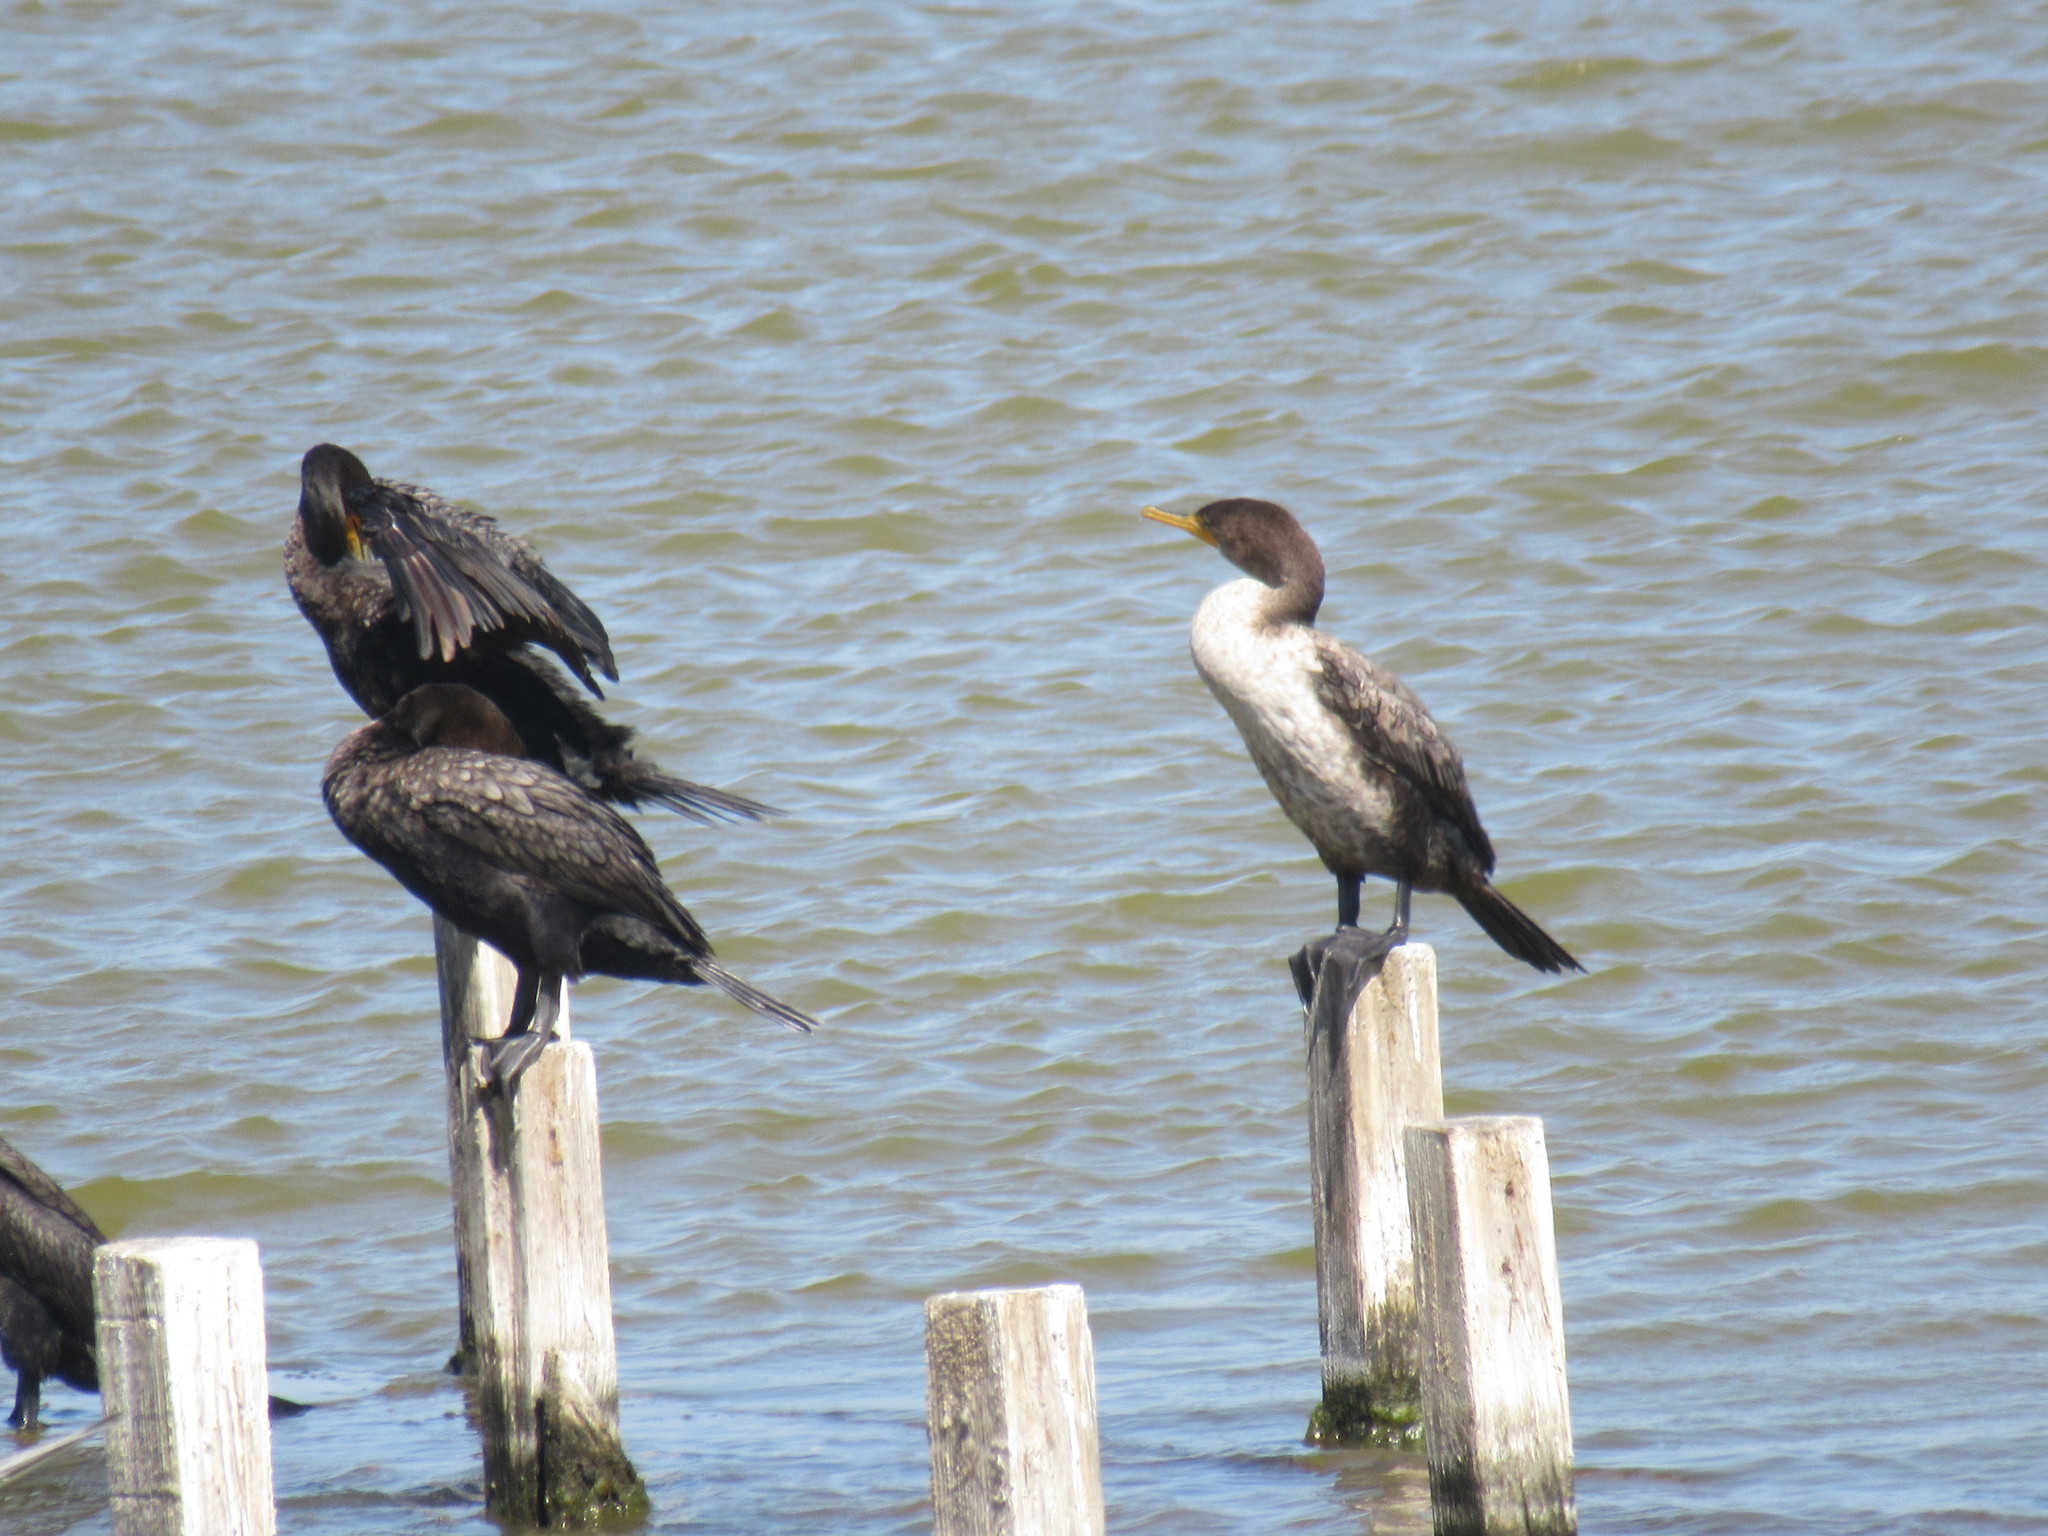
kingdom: Animalia
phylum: Chordata
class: Aves
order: Suliformes
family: Phalacrocoracidae
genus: Phalacrocorax
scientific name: Phalacrocorax auritus
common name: Double-crested cormorant
